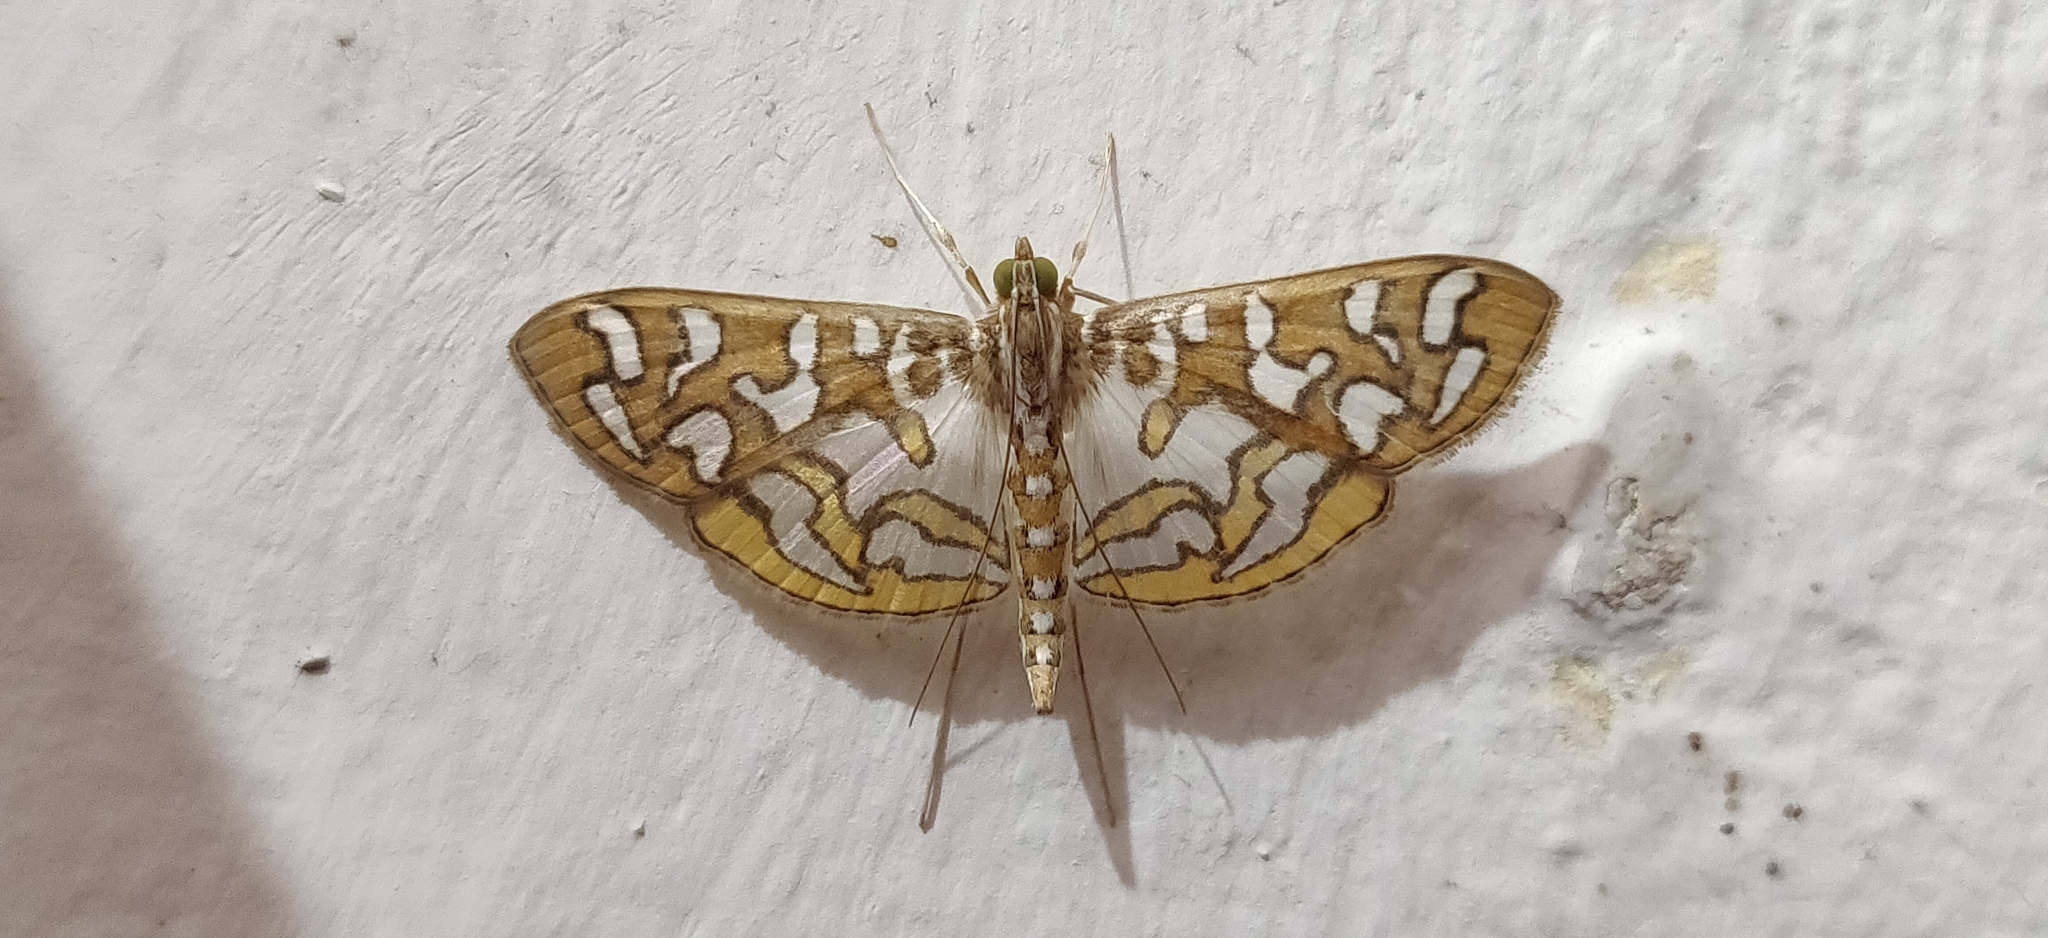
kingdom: Animalia
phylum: Arthropoda
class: Insecta
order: Lepidoptera
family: Crambidae
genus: Nausinoe
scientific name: Nausinoe perspectata
